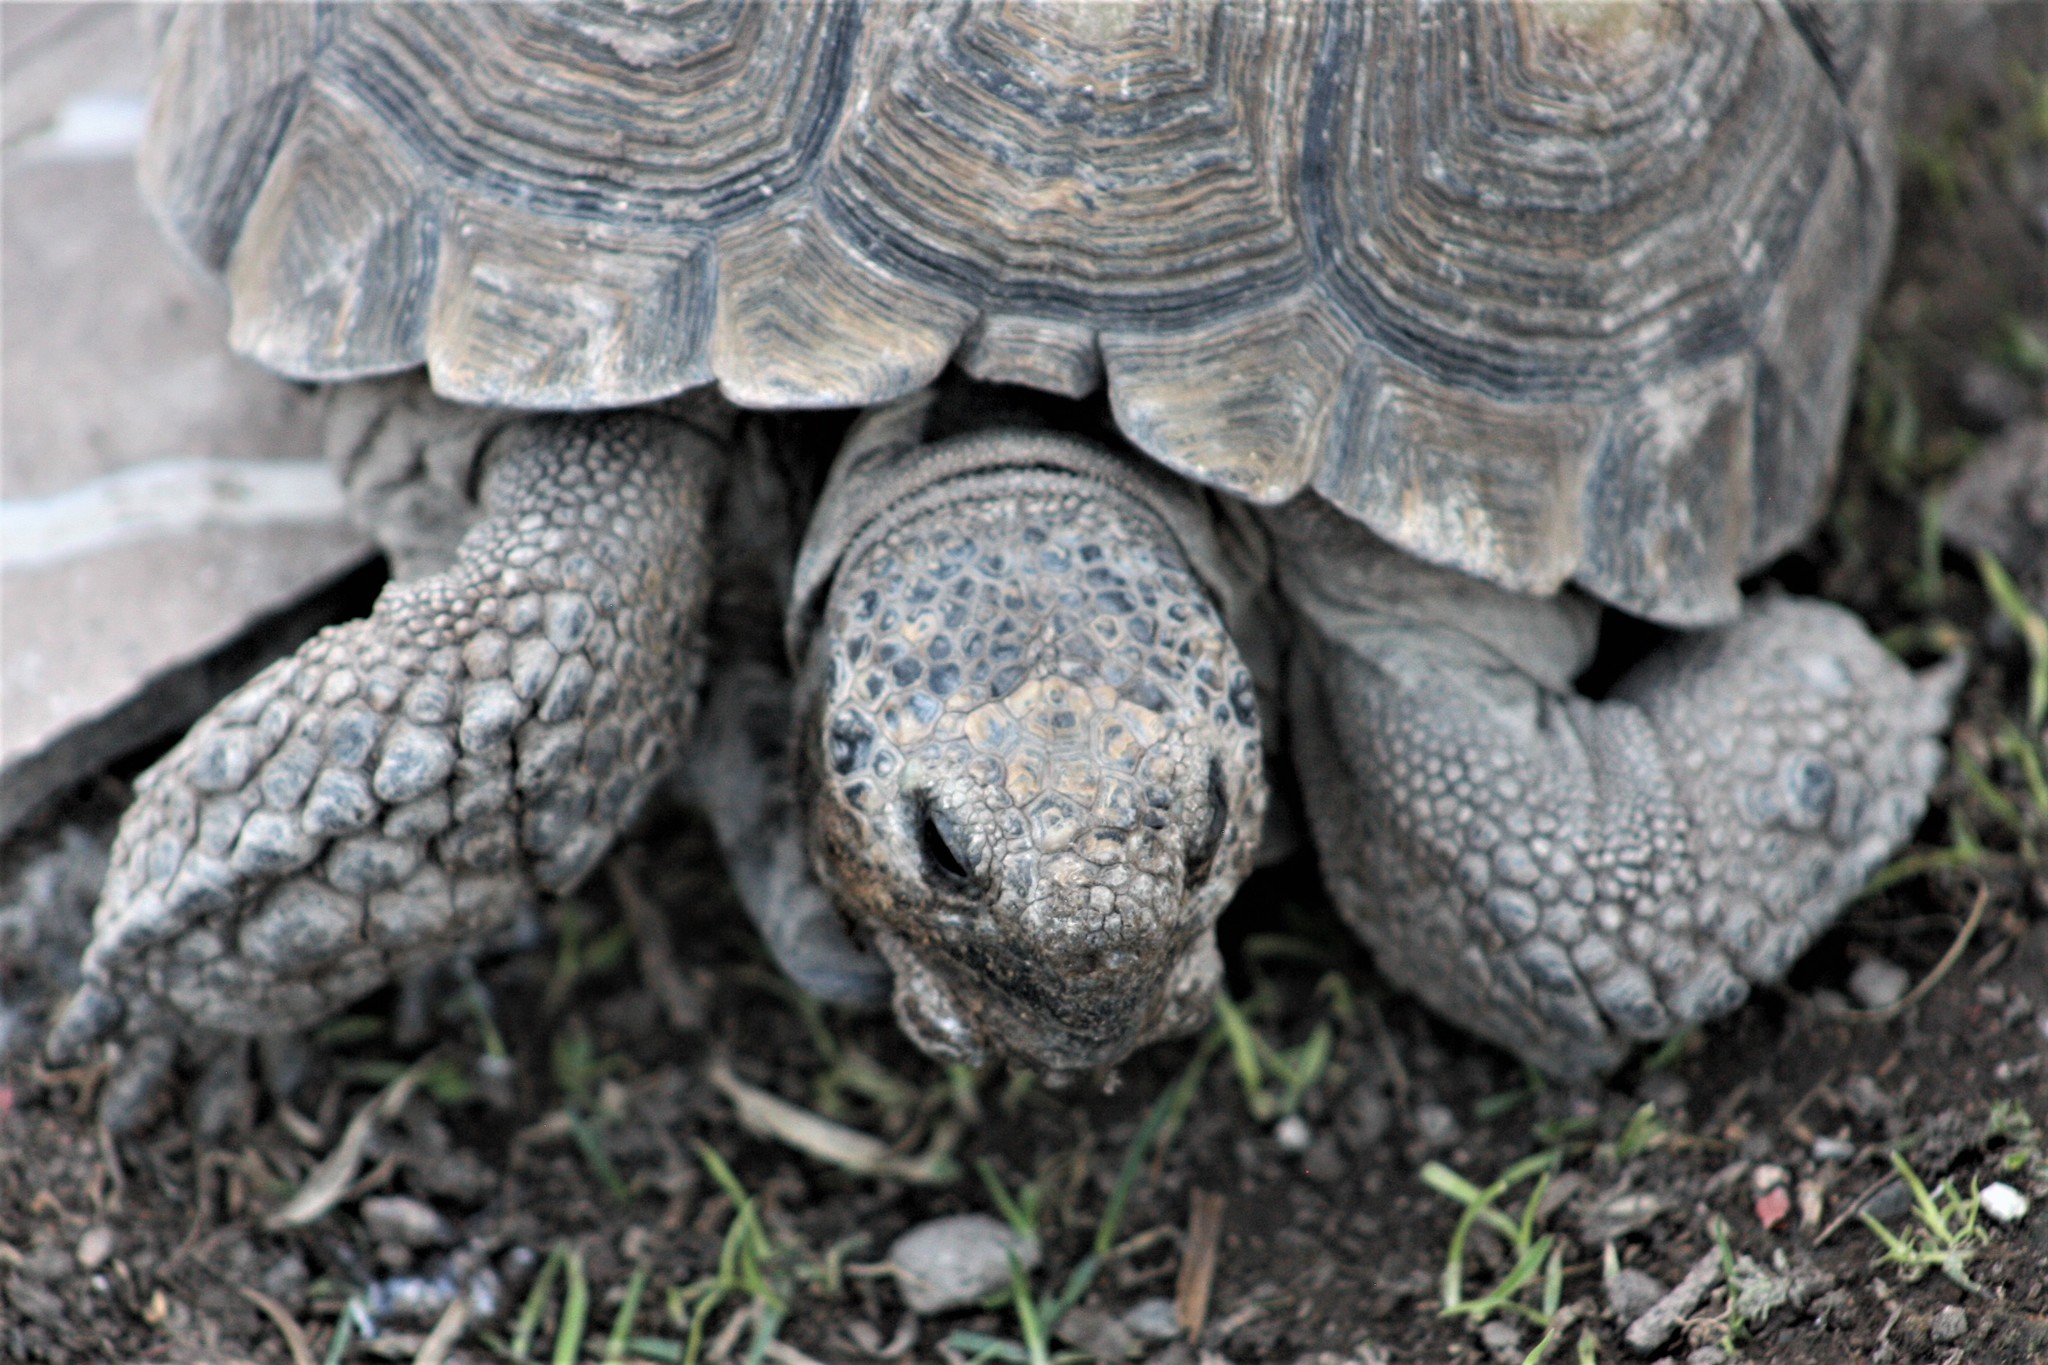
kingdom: Animalia
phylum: Chordata
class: Testudines
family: Testudinidae
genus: Gopherus
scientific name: Gopherus berlandieri
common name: Texas (gopher )tortoise
